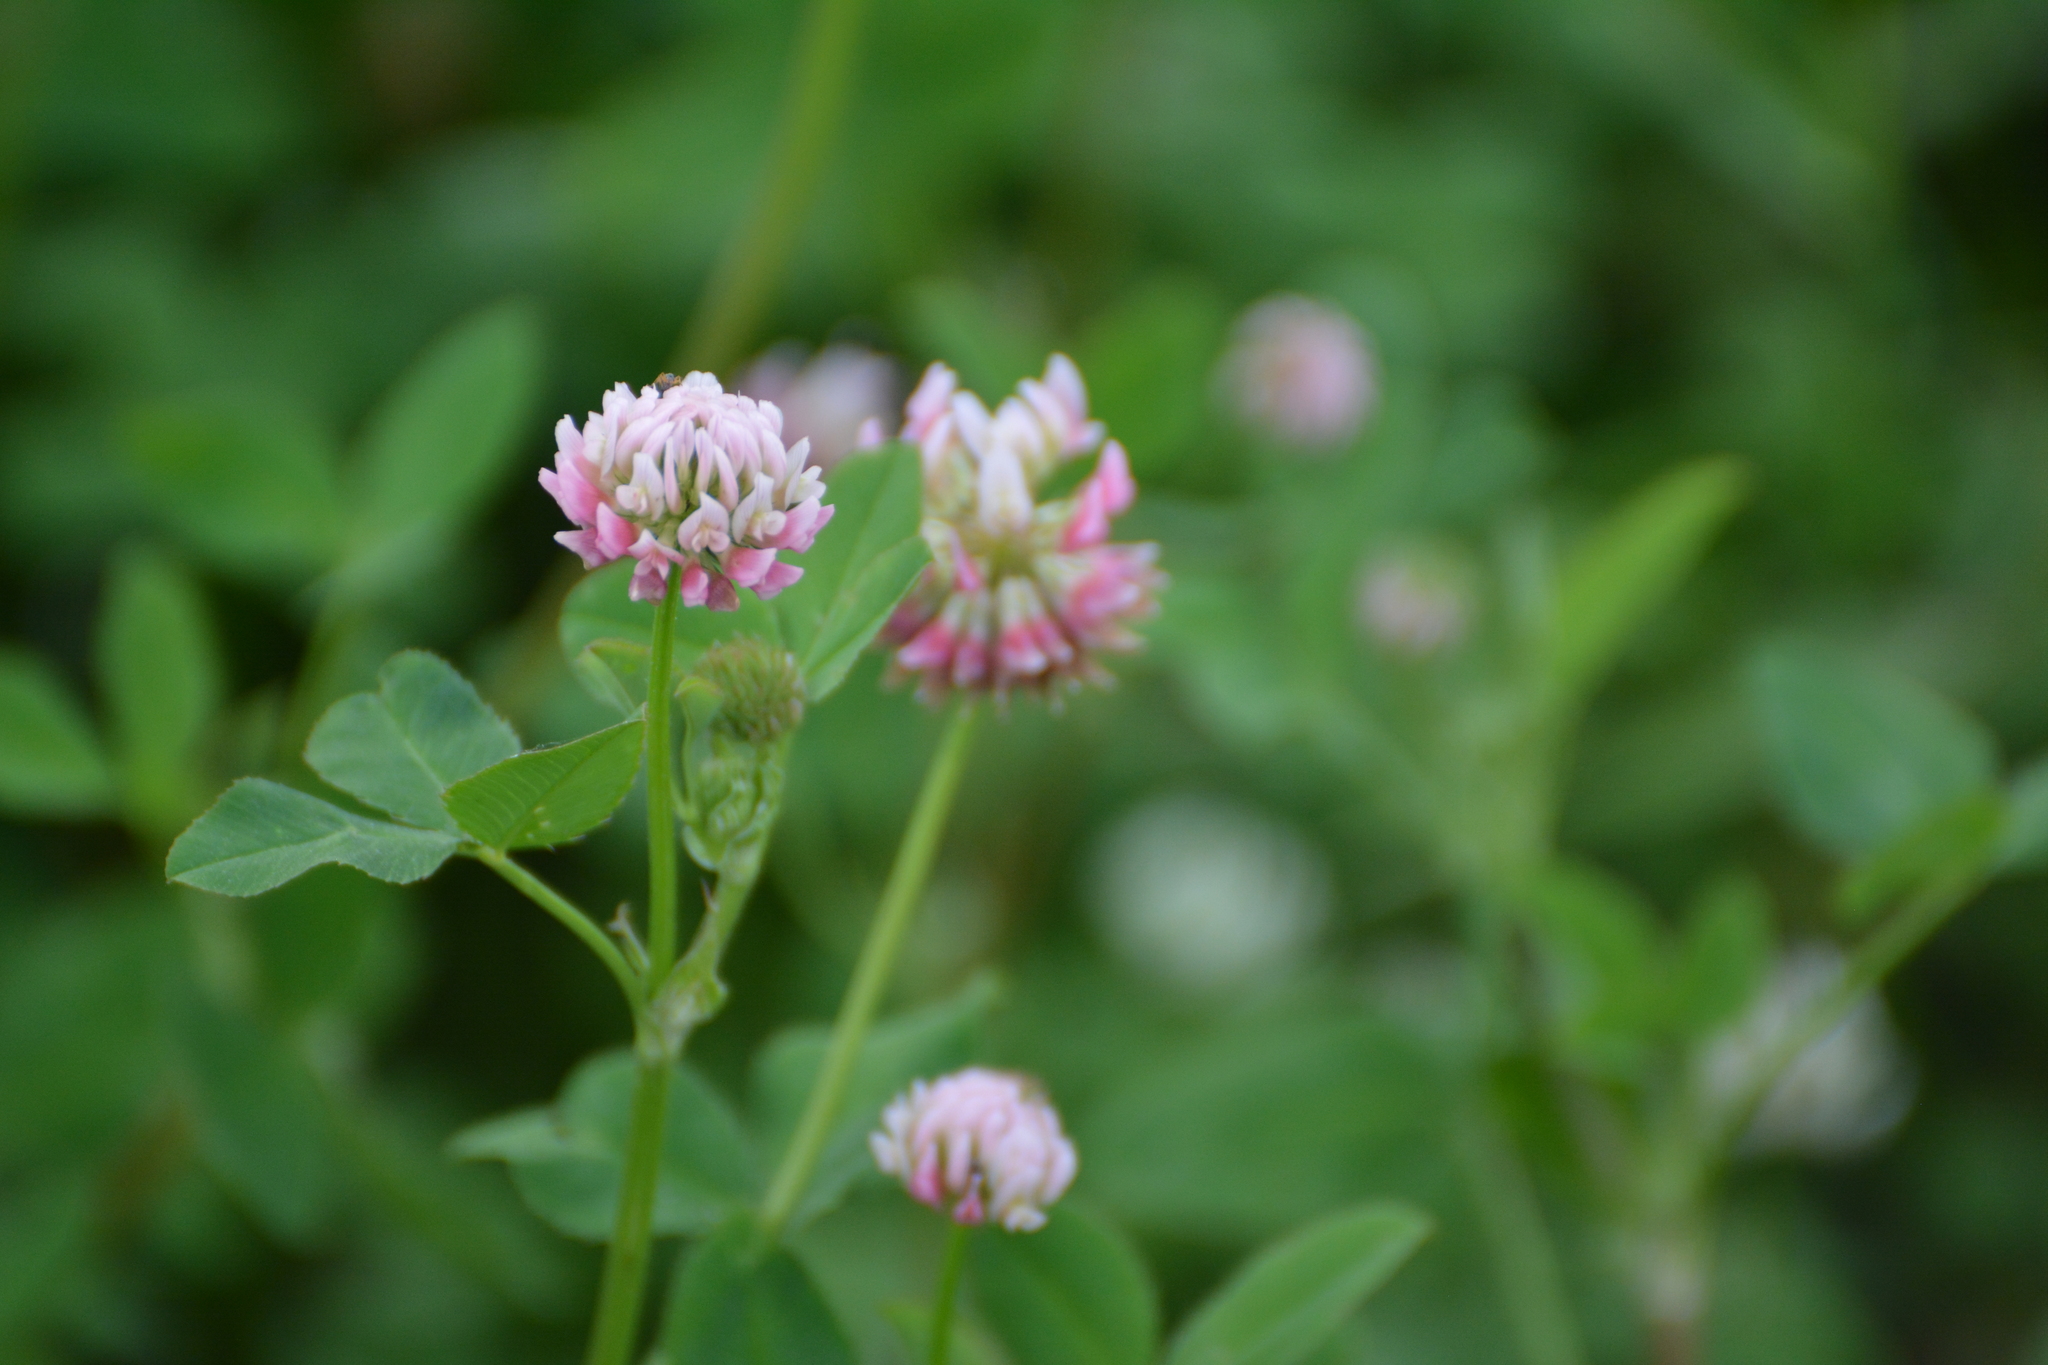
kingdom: Plantae
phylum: Tracheophyta
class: Magnoliopsida
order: Fabales
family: Fabaceae
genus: Trifolium
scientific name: Trifolium hybridum
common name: Alsike clover
